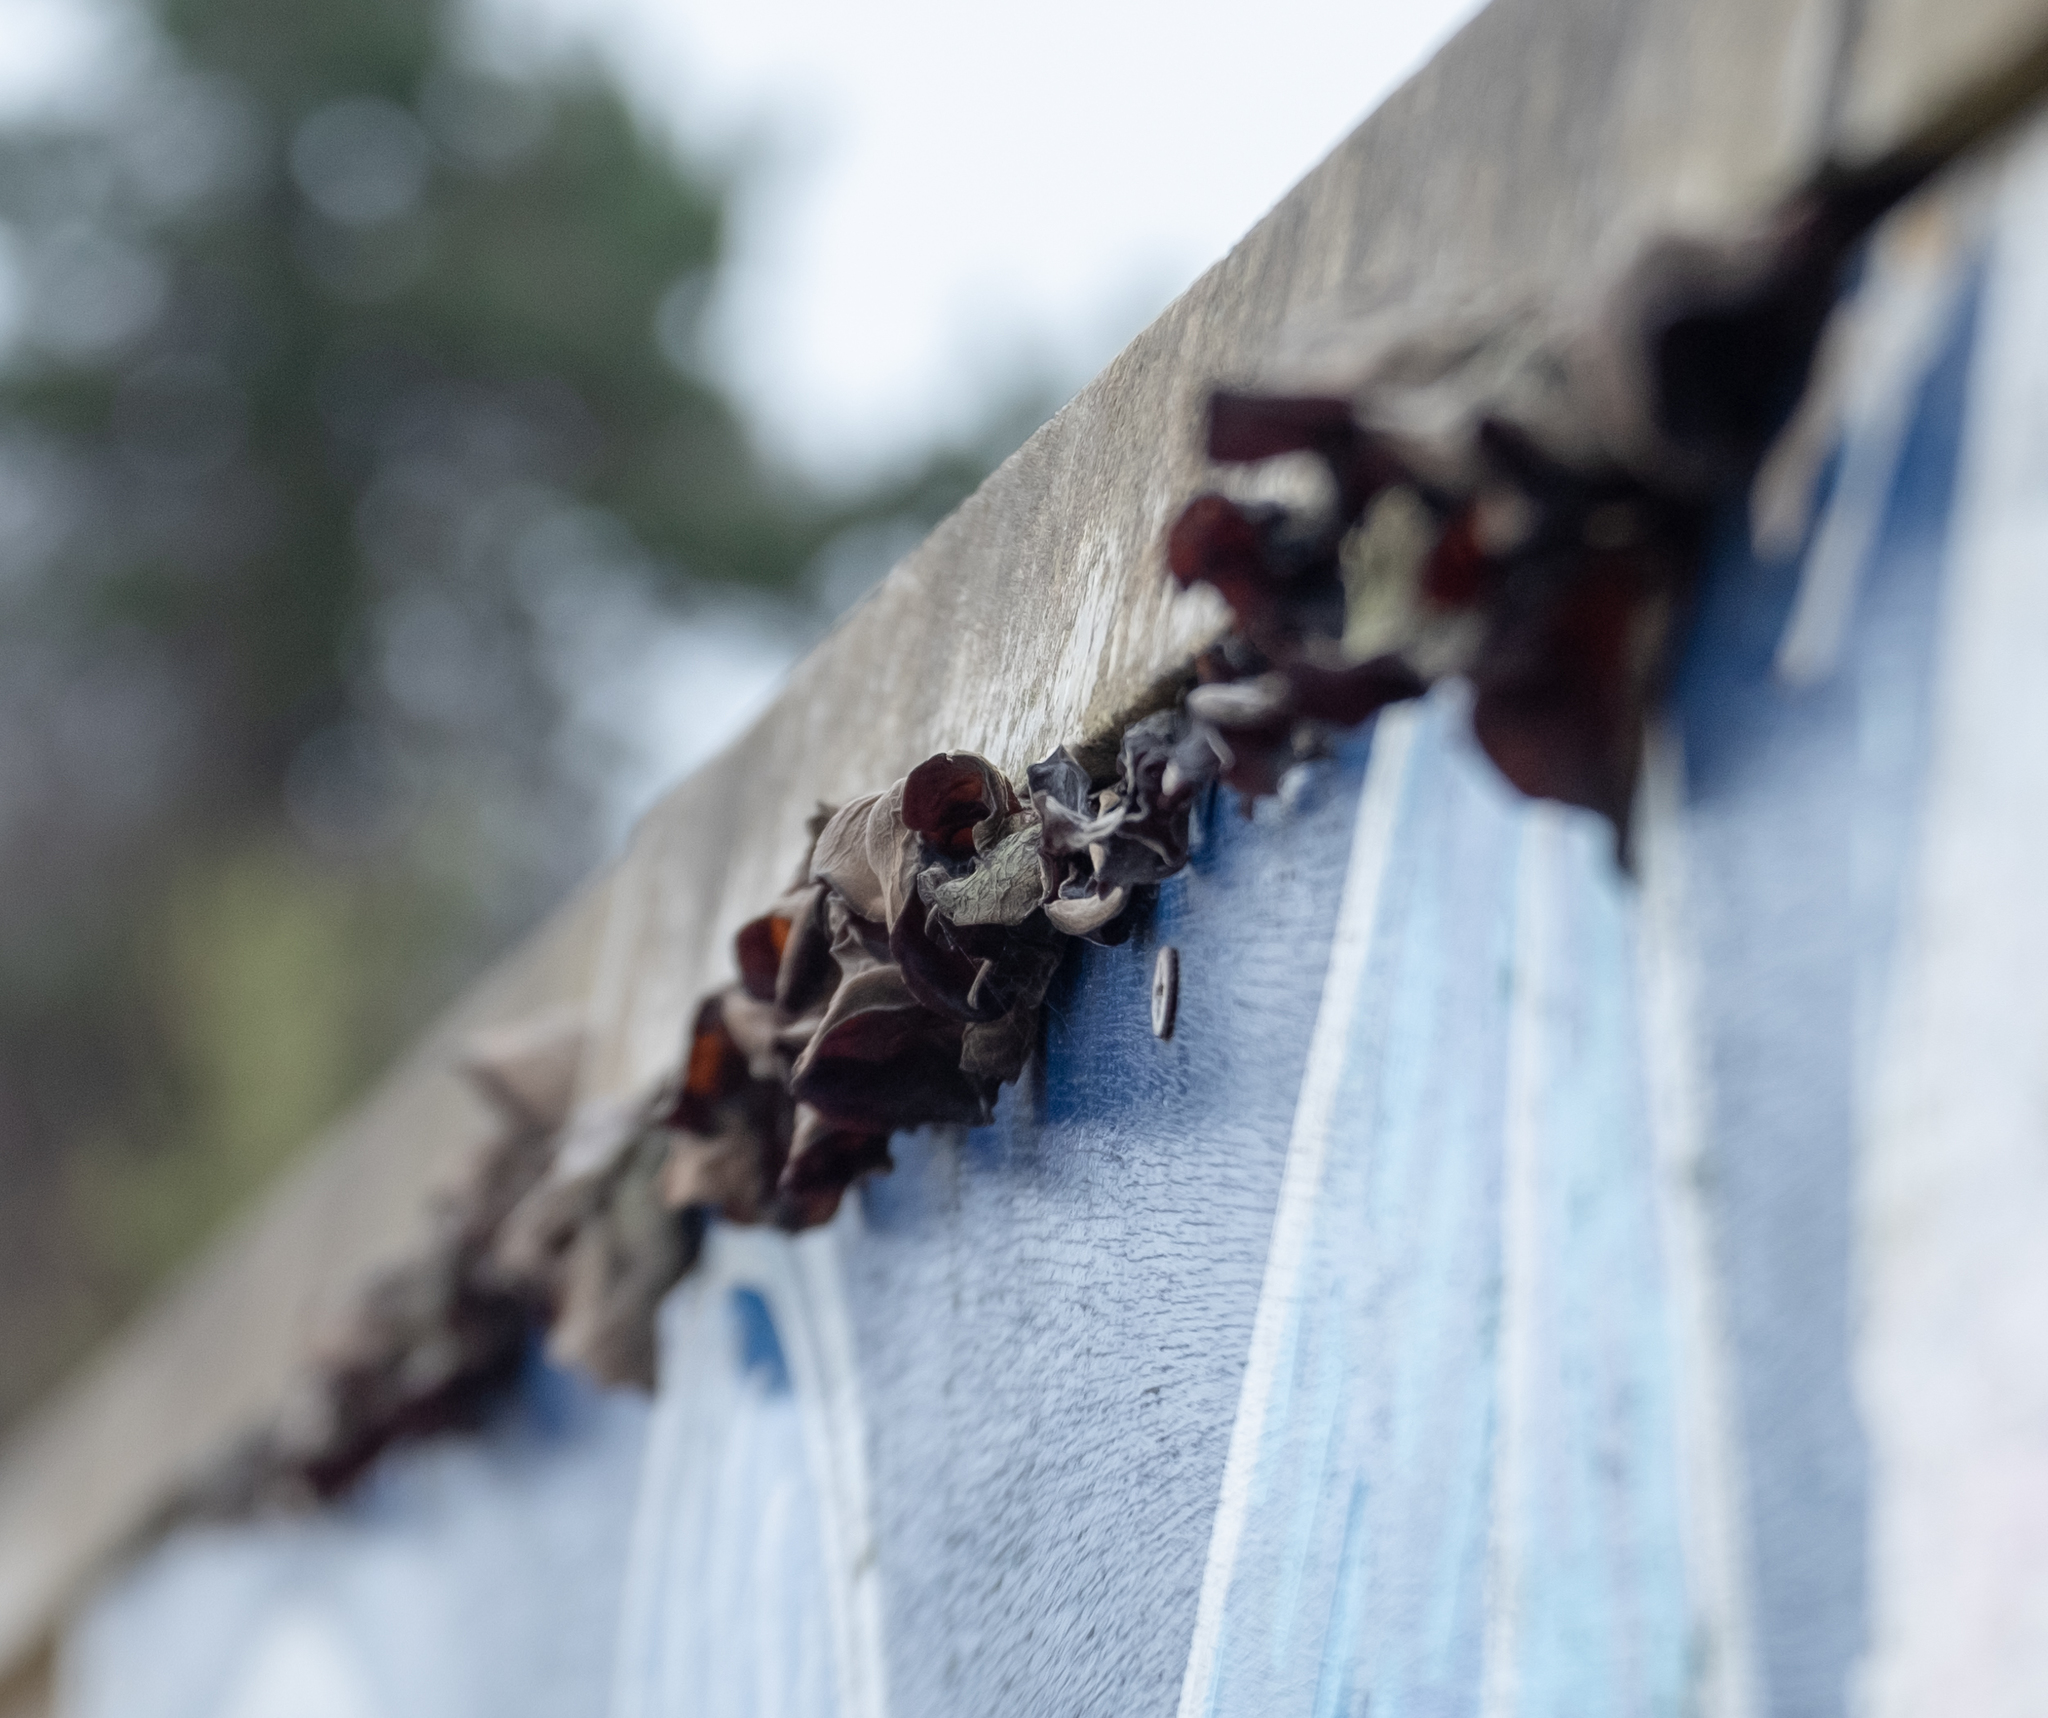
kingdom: Fungi
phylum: Basidiomycota
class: Agaricomycetes
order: Auriculariales
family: Auriculariaceae
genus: Auricularia
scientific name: Auricularia auricula-judae
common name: Jelly ear
